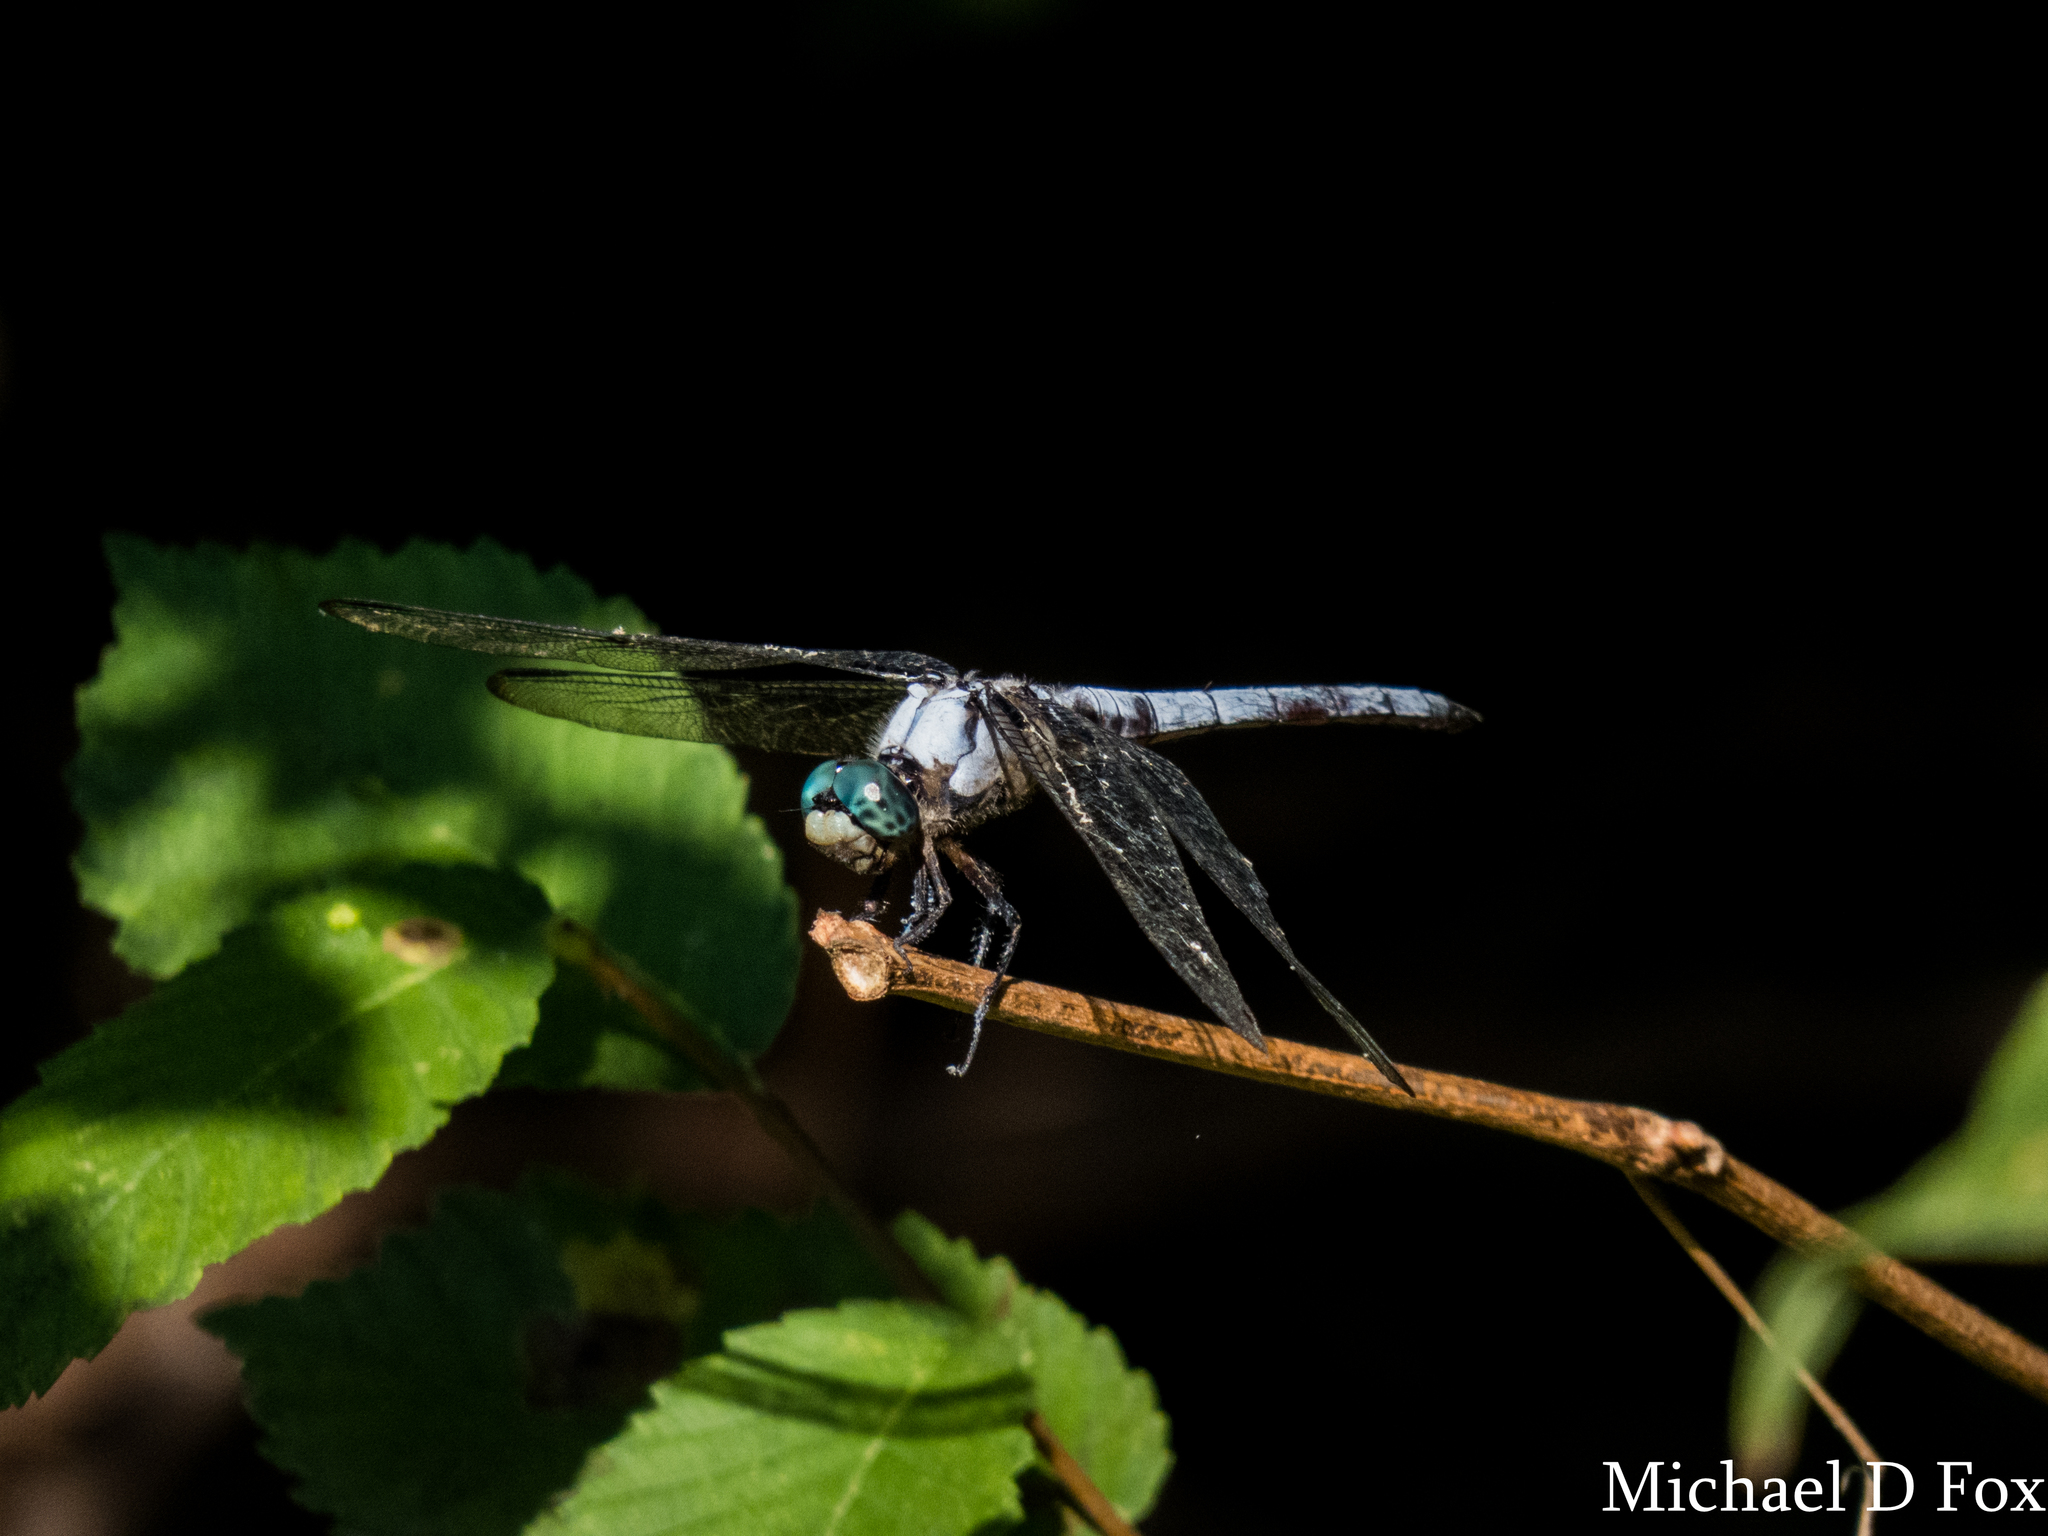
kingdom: Animalia
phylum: Arthropoda
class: Insecta
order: Odonata
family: Libellulidae
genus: Libellula
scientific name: Libellula vibrans
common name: Great blue skimmer
